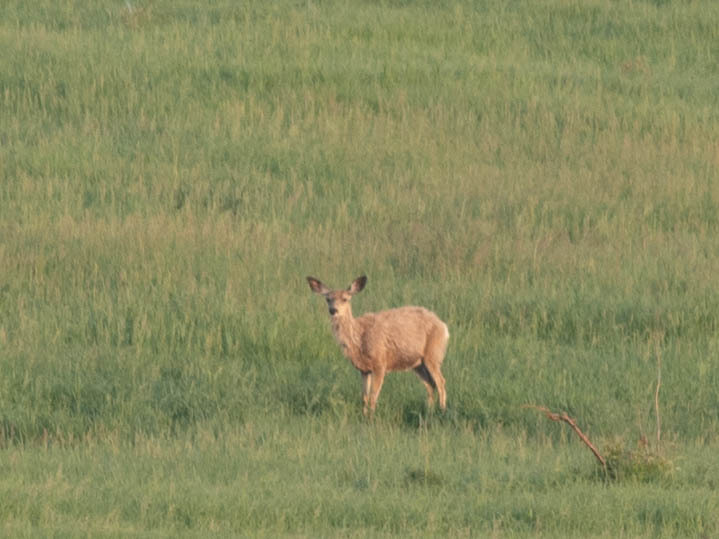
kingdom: Animalia
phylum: Chordata
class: Mammalia
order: Artiodactyla
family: Cervidae
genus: Odocoileus
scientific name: Odocoileus hemionus
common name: Mule deer
